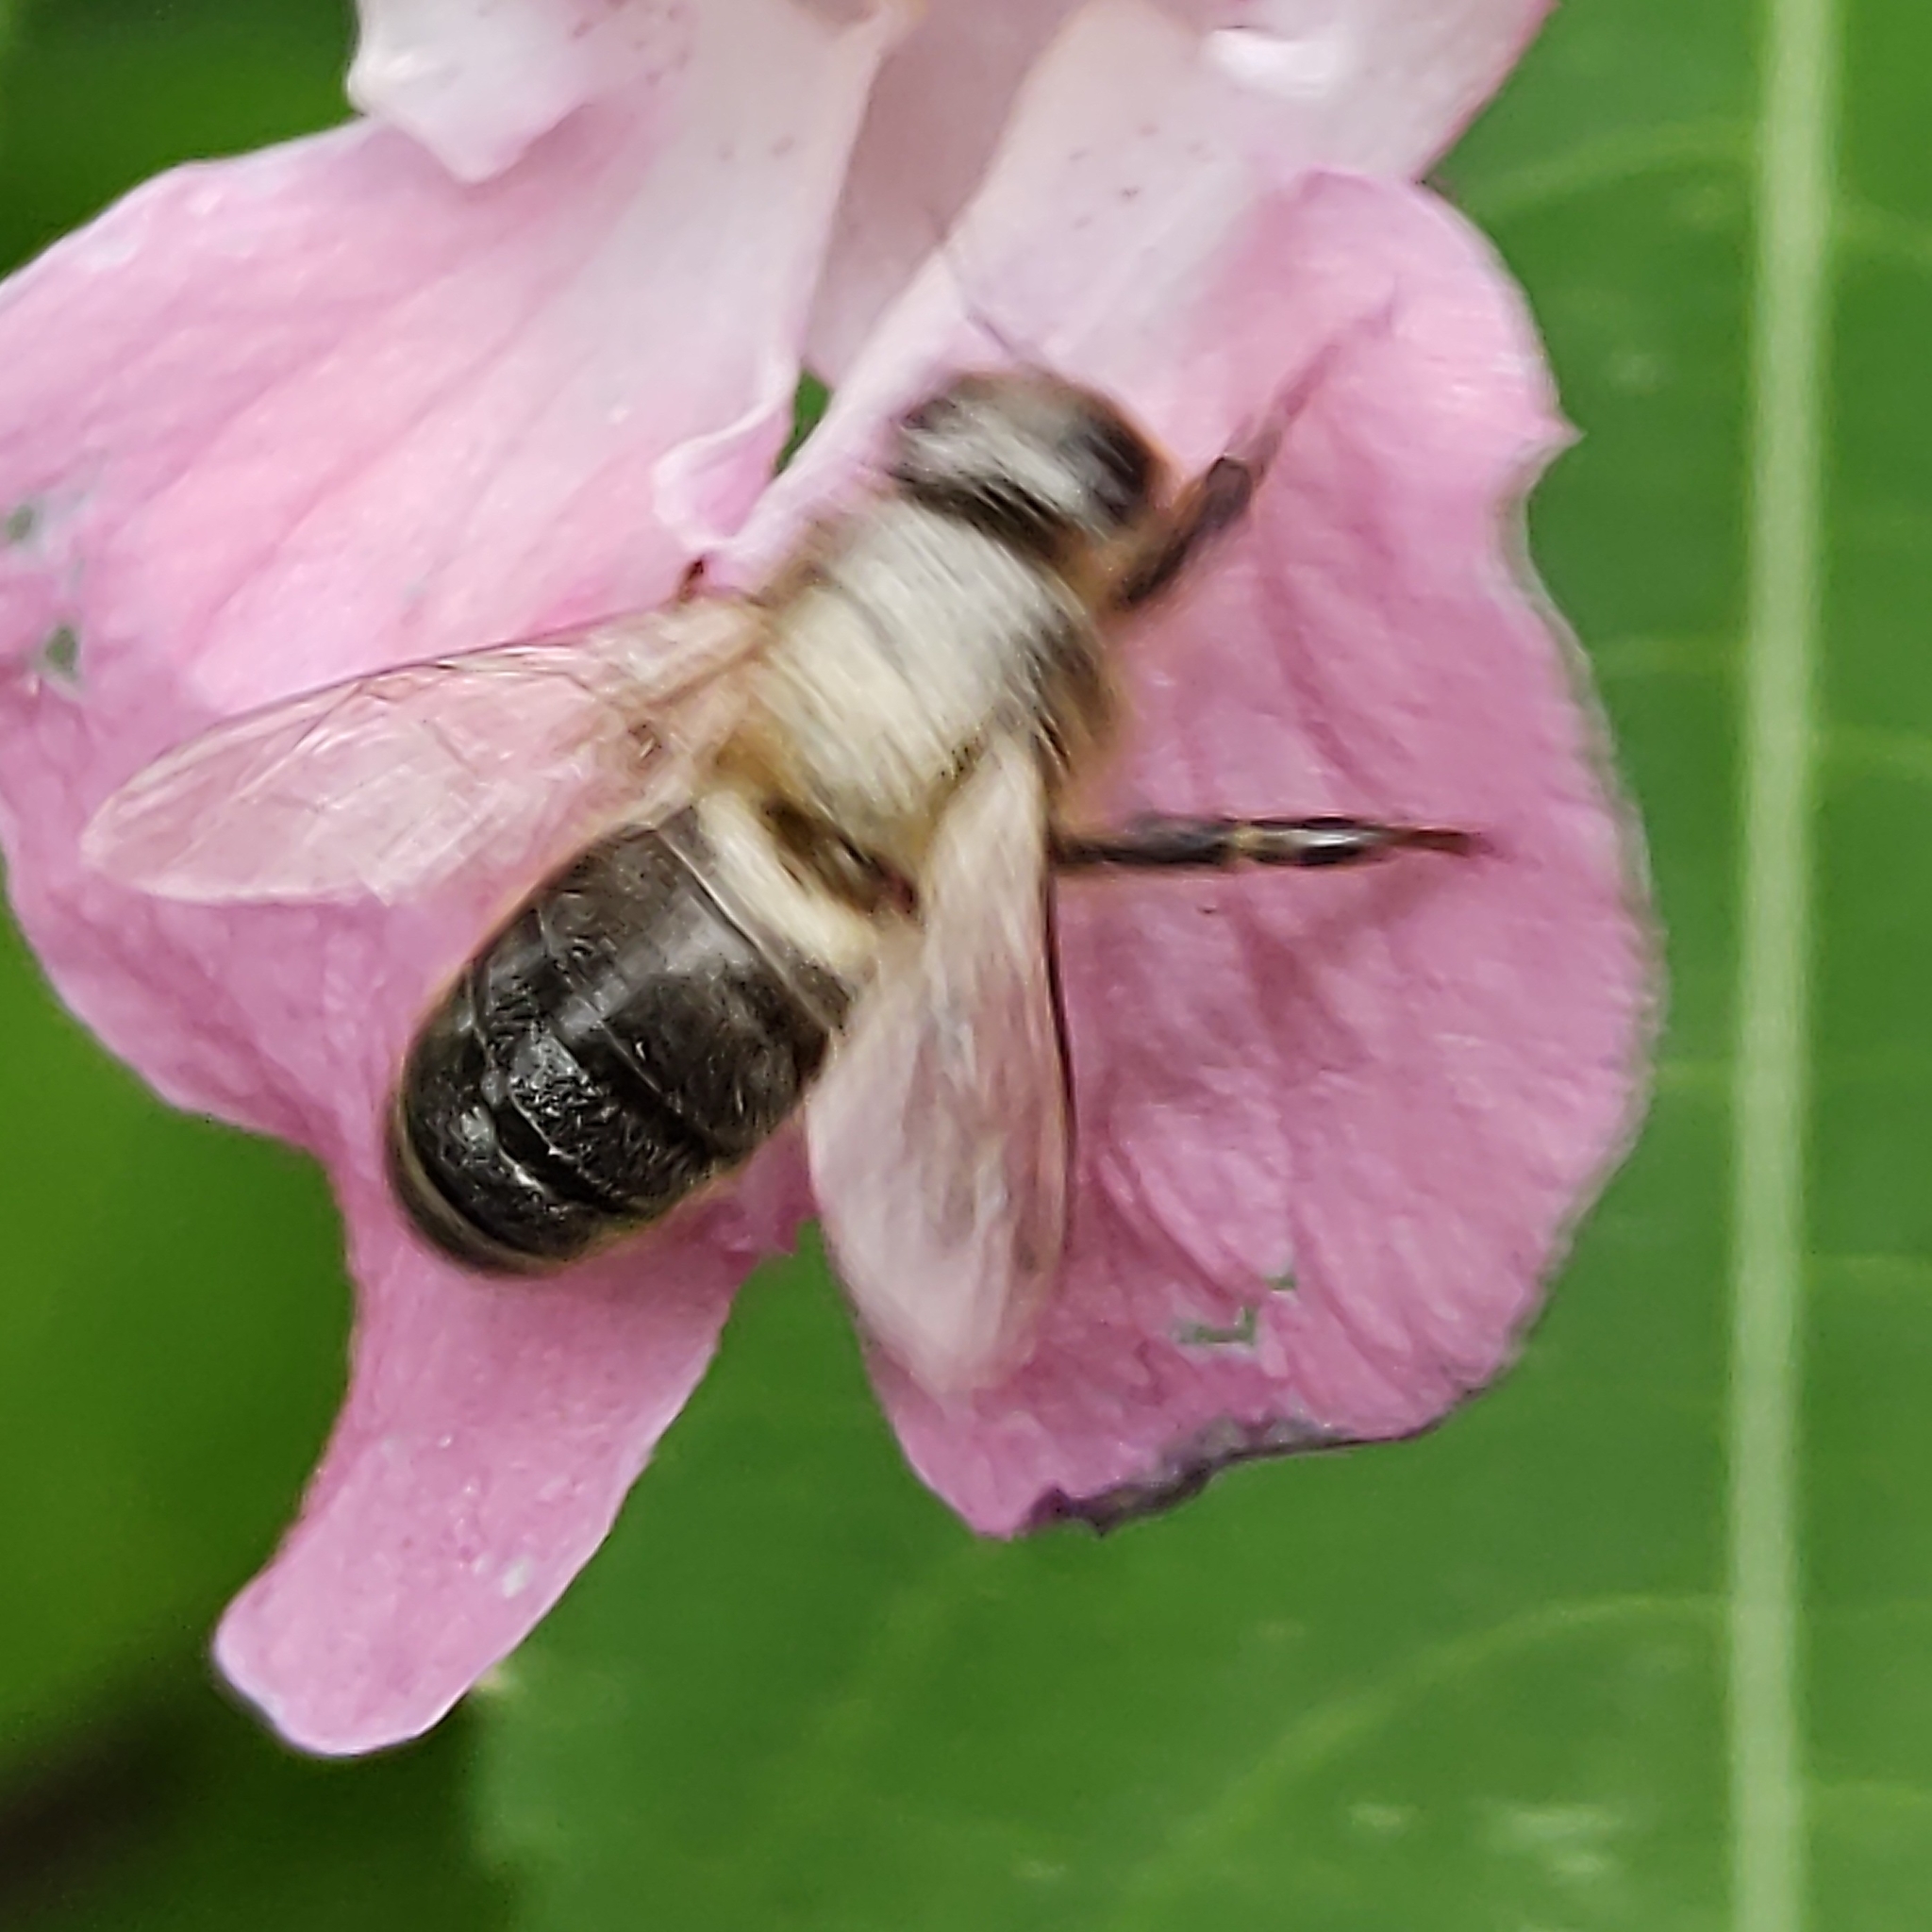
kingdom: Animalia
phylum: Arthropoda
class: Insecta
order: Hymenoptera
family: Apidae
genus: Apis
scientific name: Apis mellifera
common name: Honey bee
